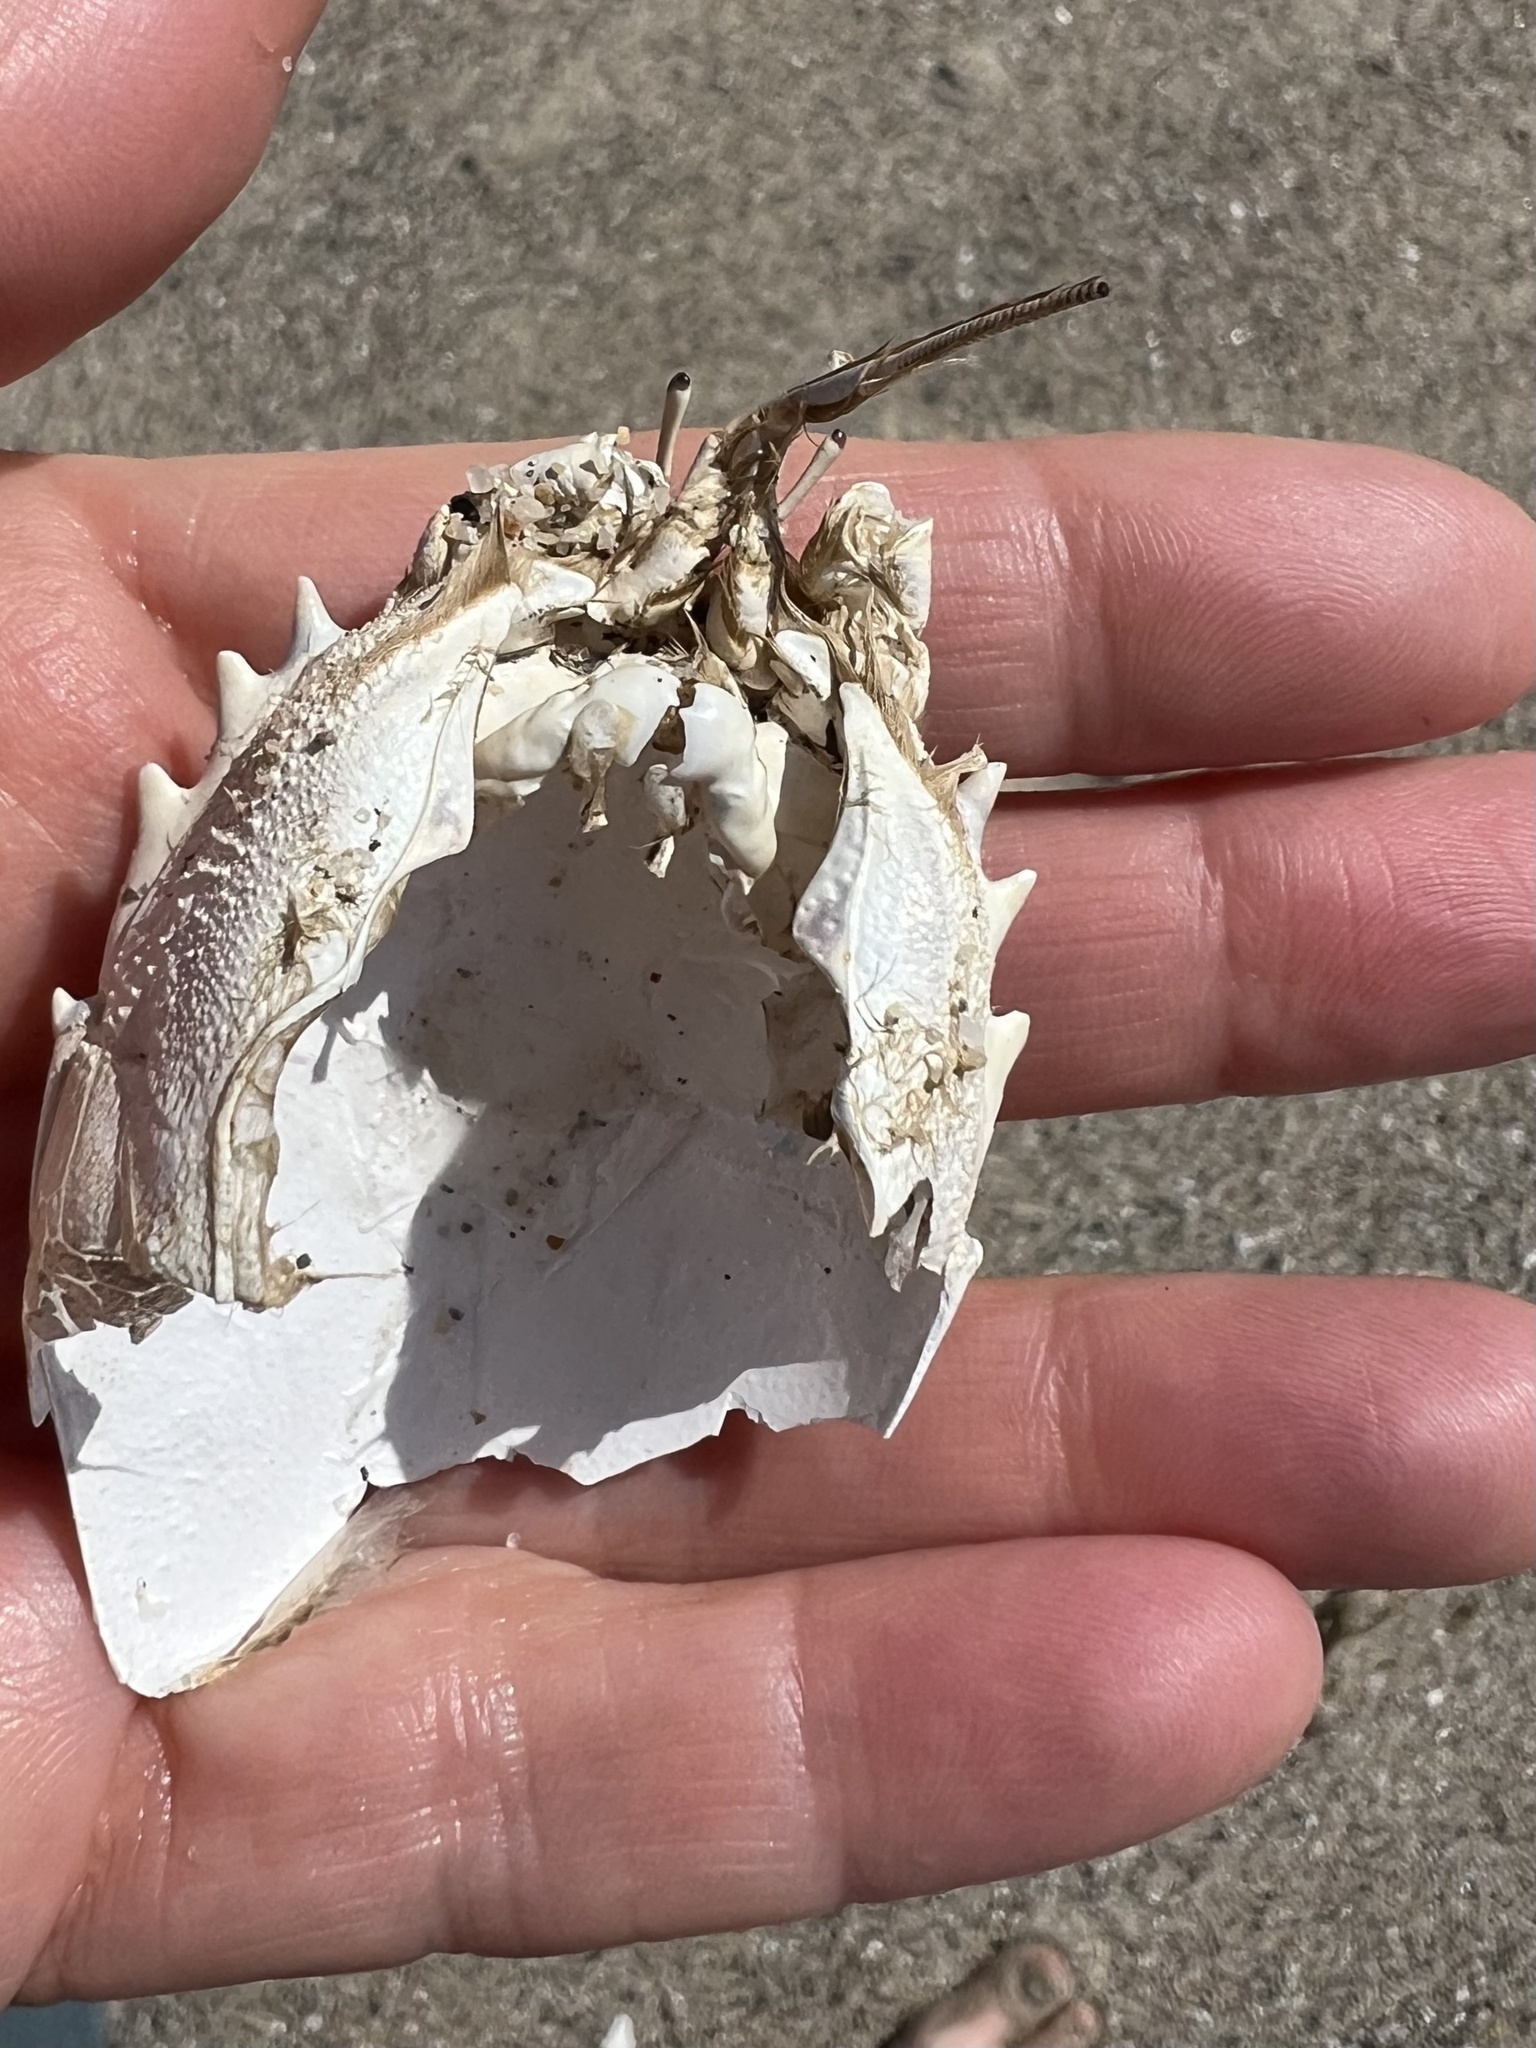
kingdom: Animalia
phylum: Arthropoda
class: Malacostraca
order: Decapoda
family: Blepharipodidae
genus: Blepharipoda
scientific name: Blepharipoda occidentalis
